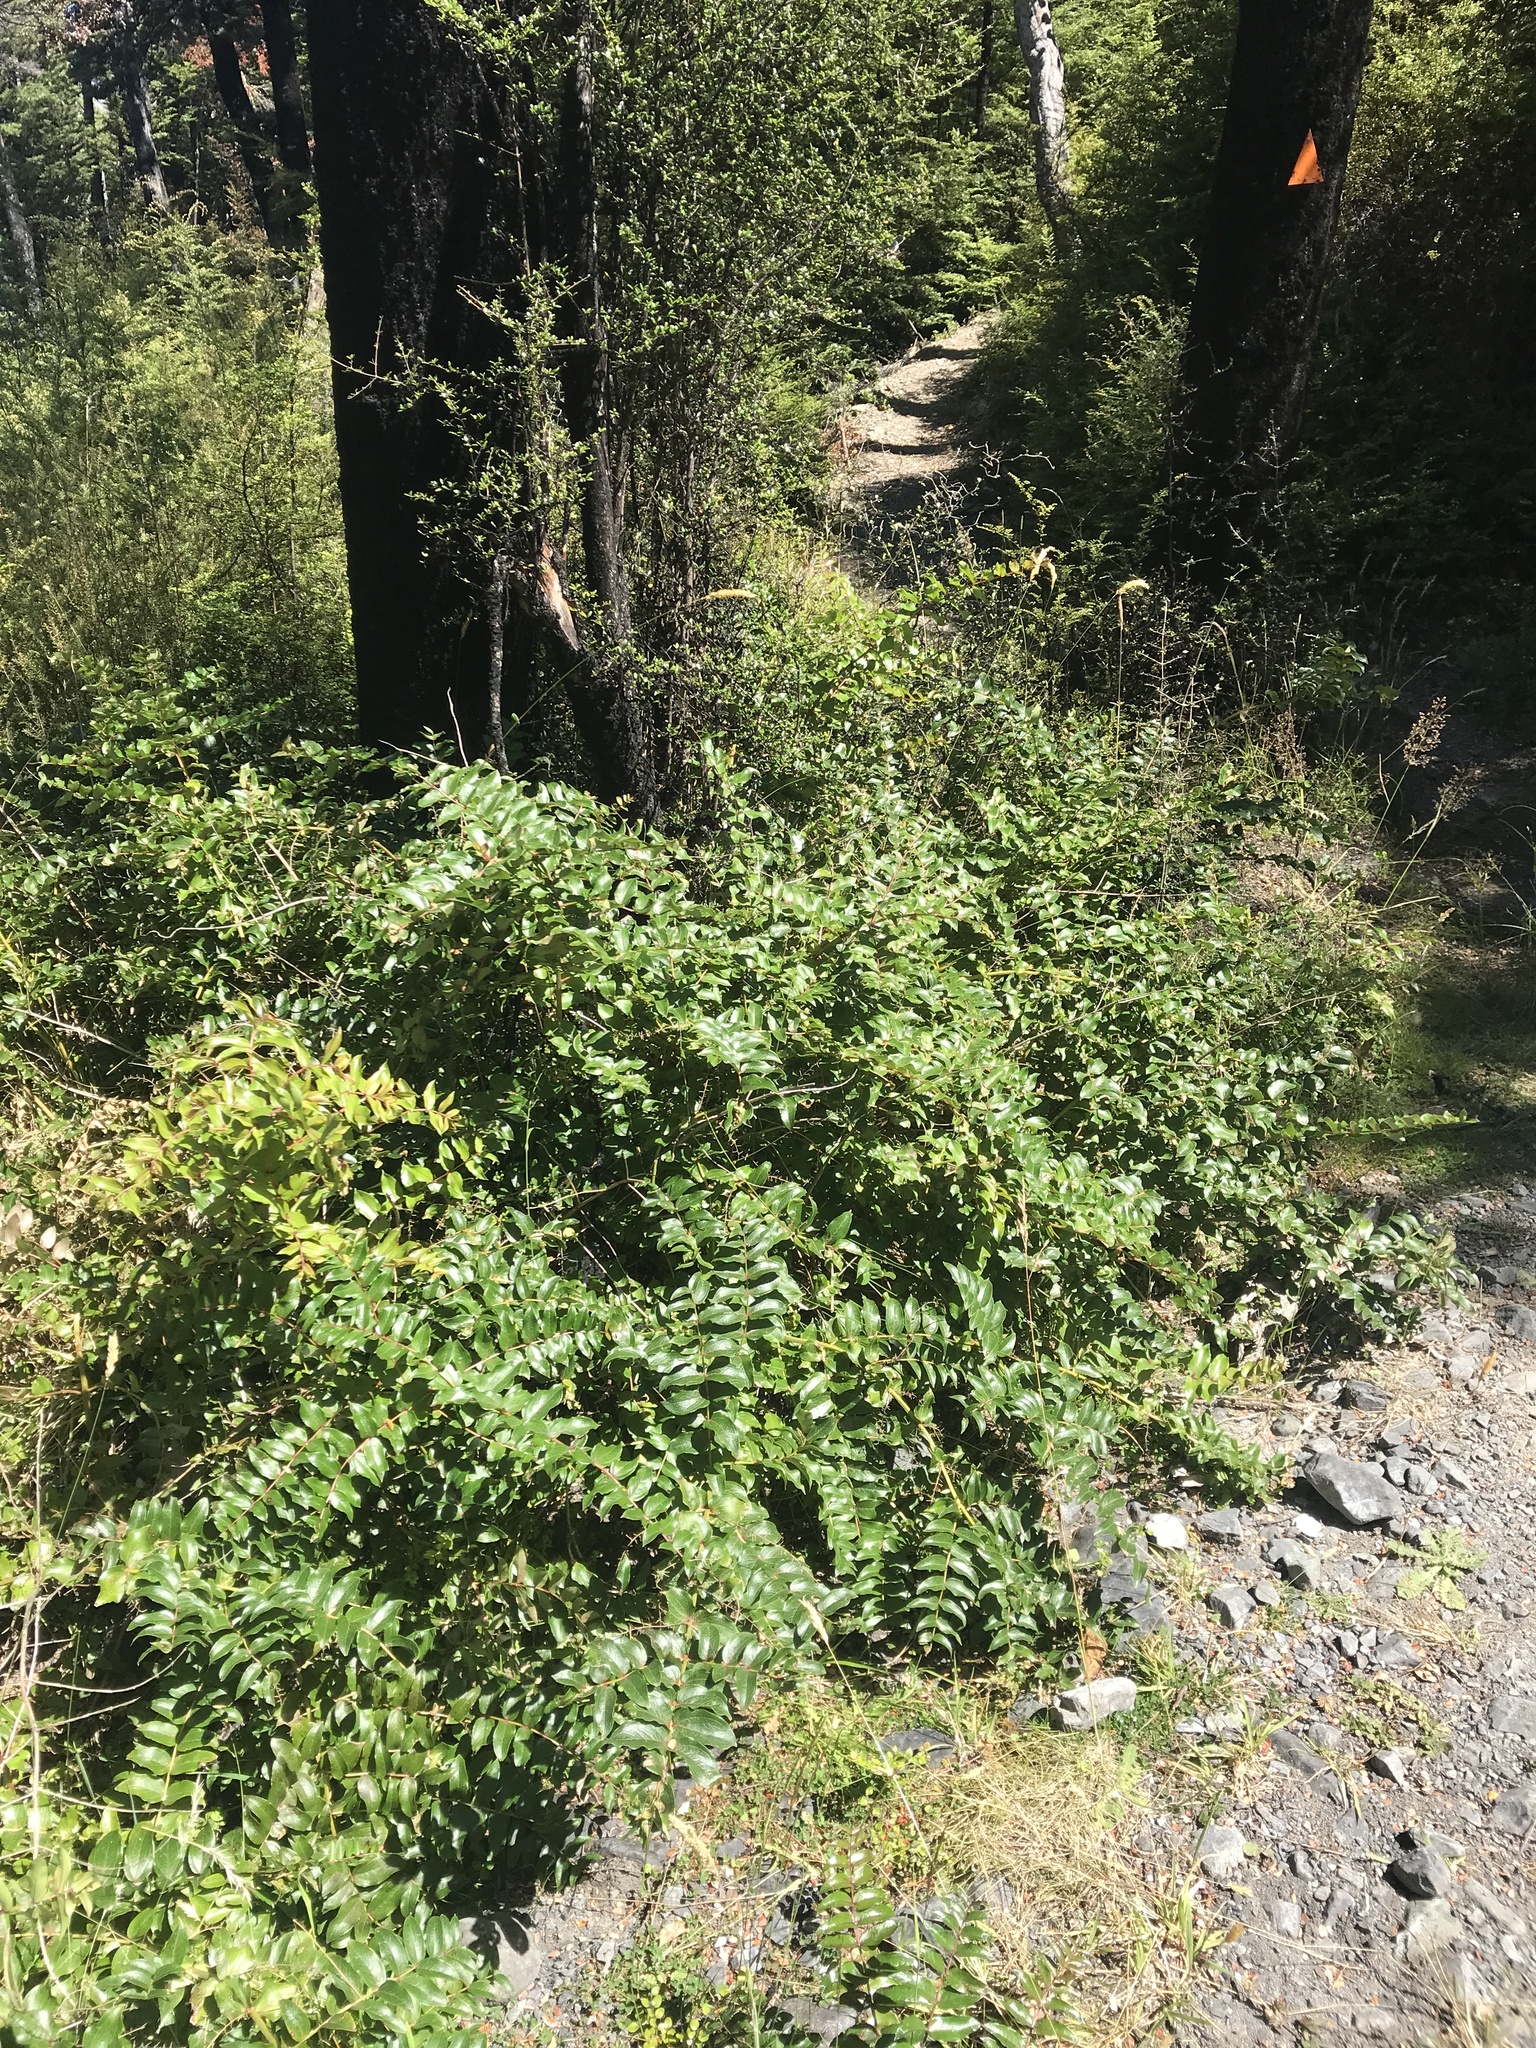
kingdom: Plantae
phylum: Tracheophyta
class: Magnoliopsida
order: Cucurbitales
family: Coriariaceae
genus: Coriaria
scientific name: Coriaria sarmentosa
